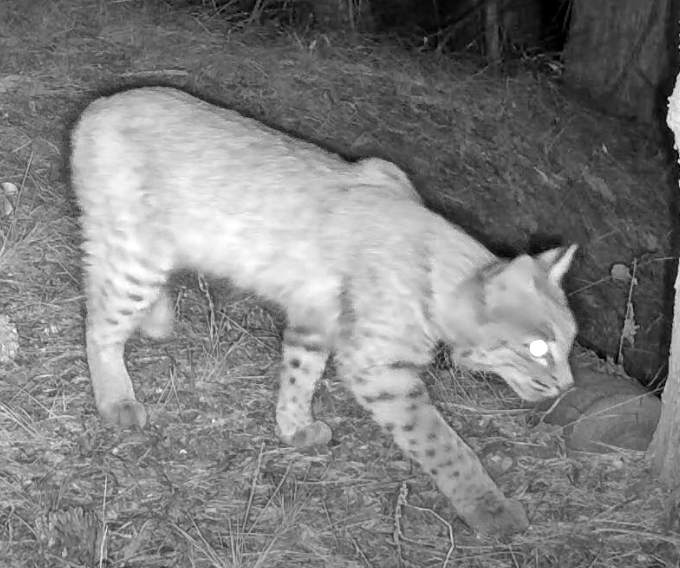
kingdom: Animalia
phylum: Chordata
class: Mammalia
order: Carnivora
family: Felidae
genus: Lynx
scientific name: Lynx rufus
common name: Bobcat
